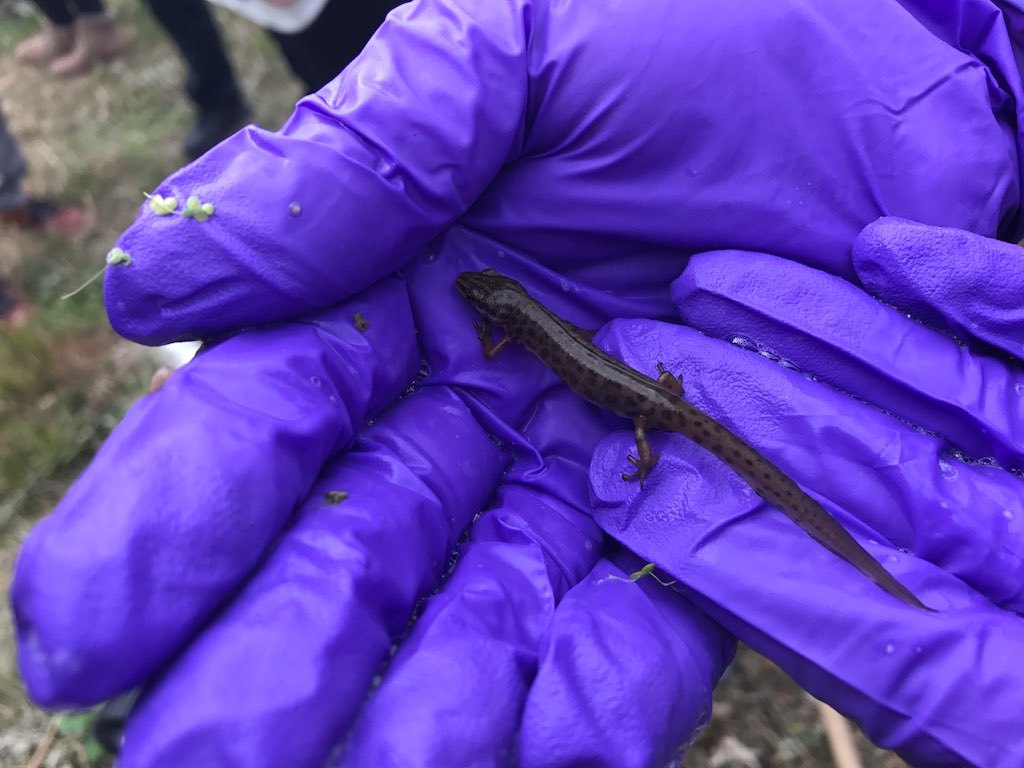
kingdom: Animalia
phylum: Chordata
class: Amphibia
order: Caudata
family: Salamandridae
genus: Lissotriton
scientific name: Lissotriton vulgaris
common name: Smooth newt
